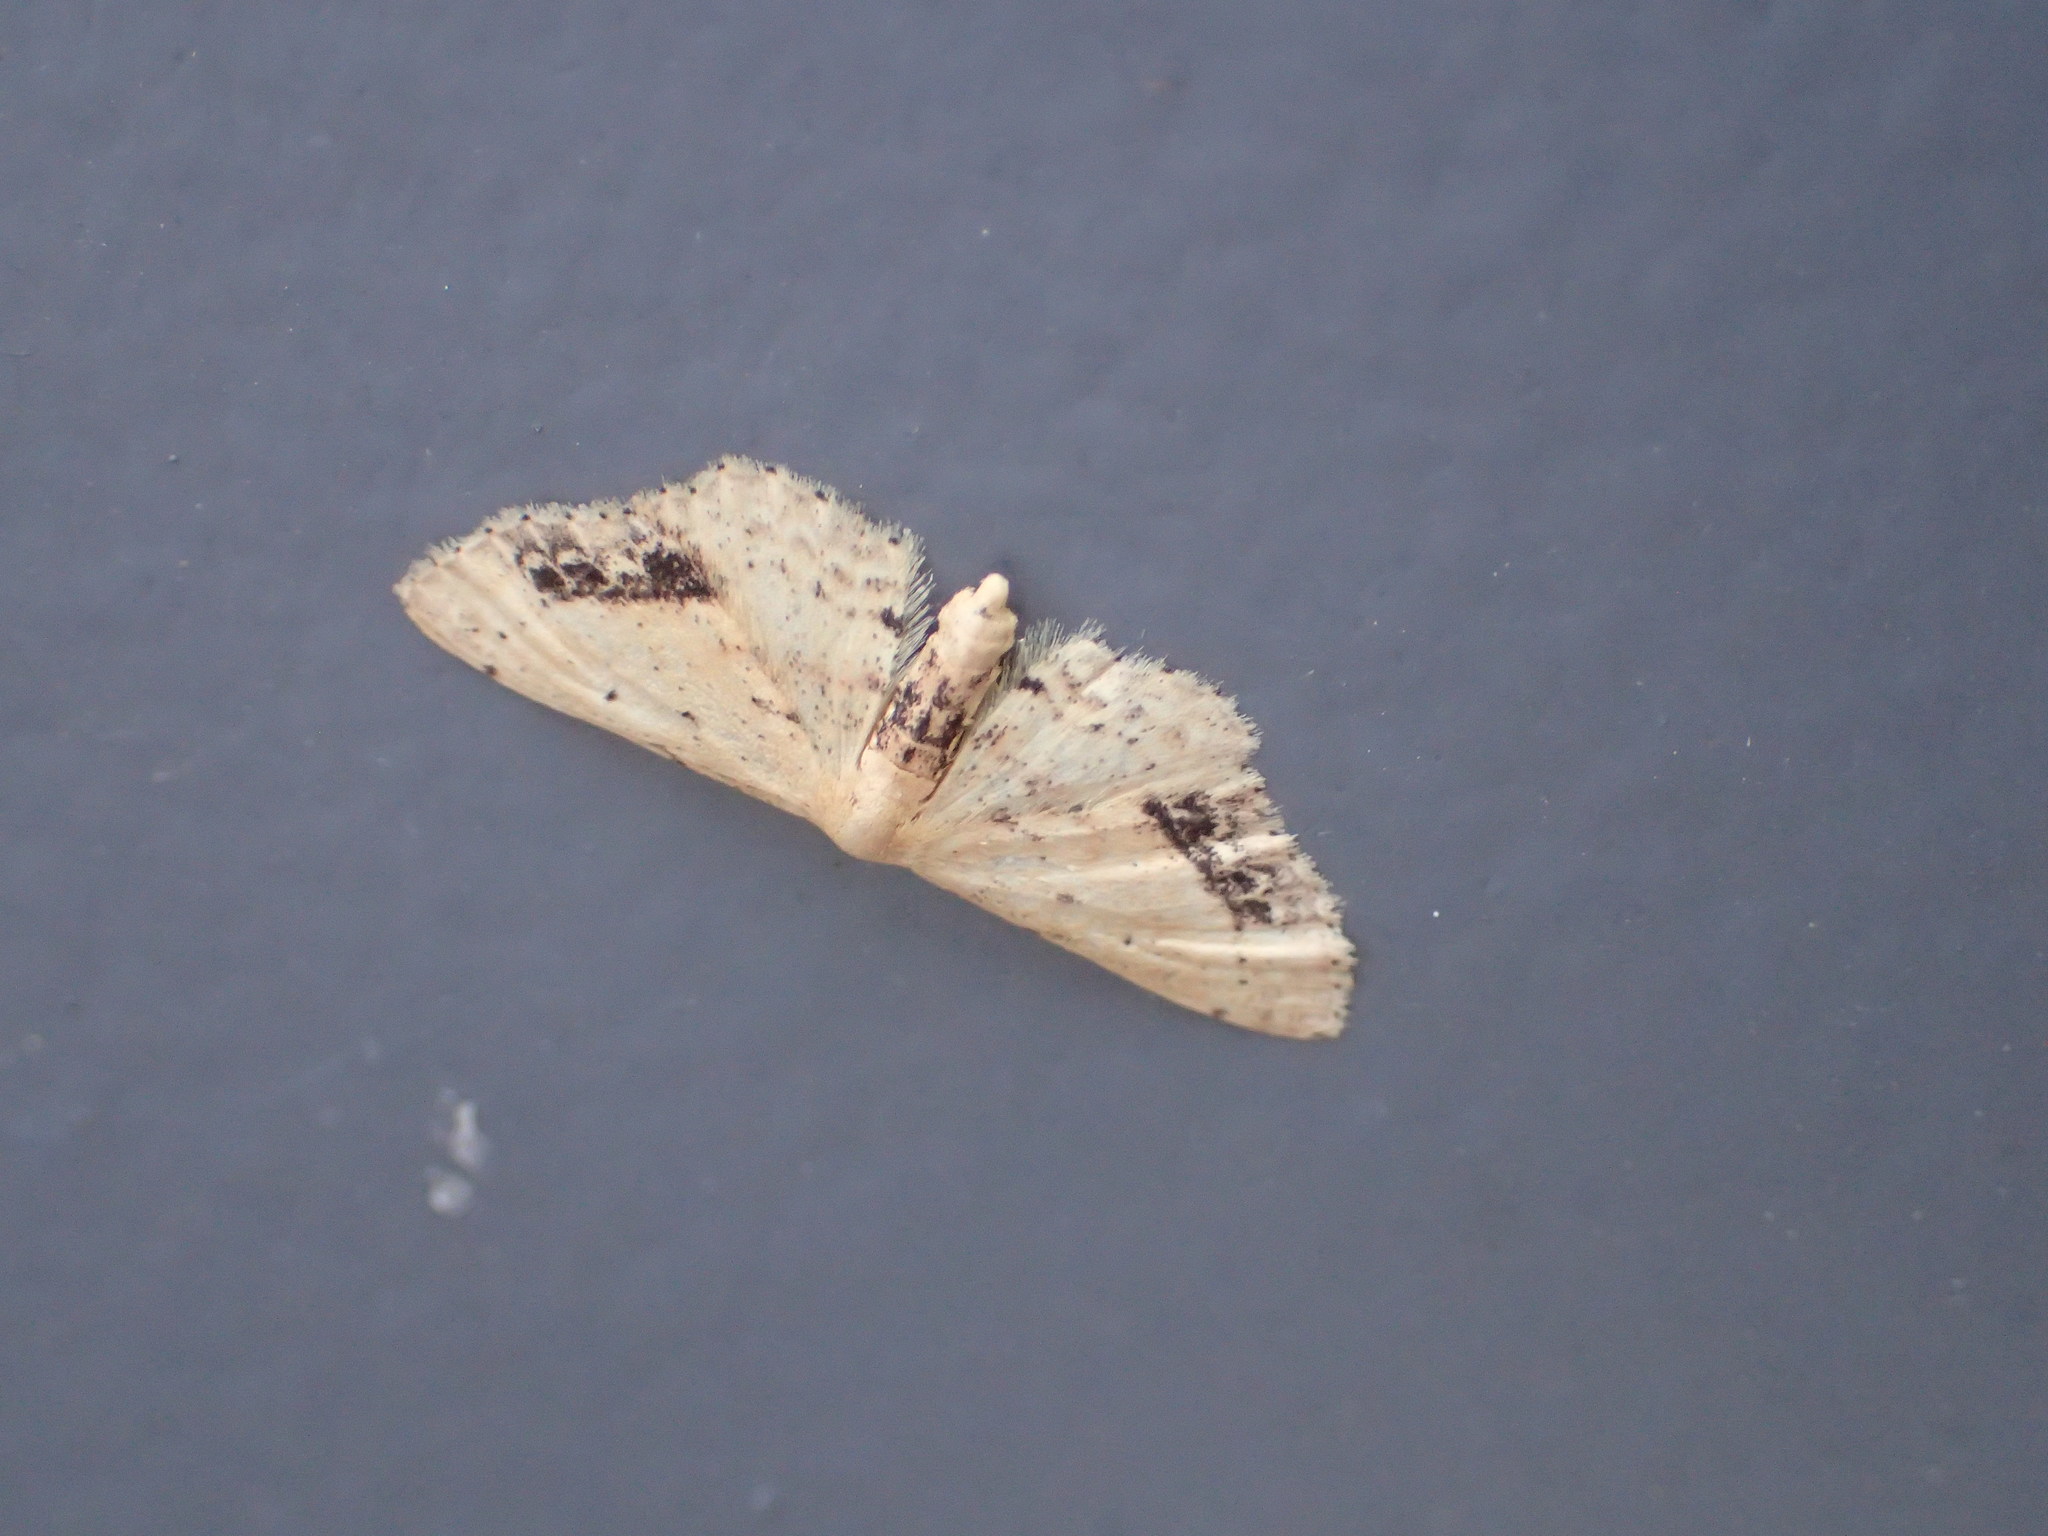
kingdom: Animalia
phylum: Arthropoda
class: Insecta
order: Lepidoptera
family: Geometridae
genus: Idaea
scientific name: Idaea dimidiata
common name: Single-dotted wave
